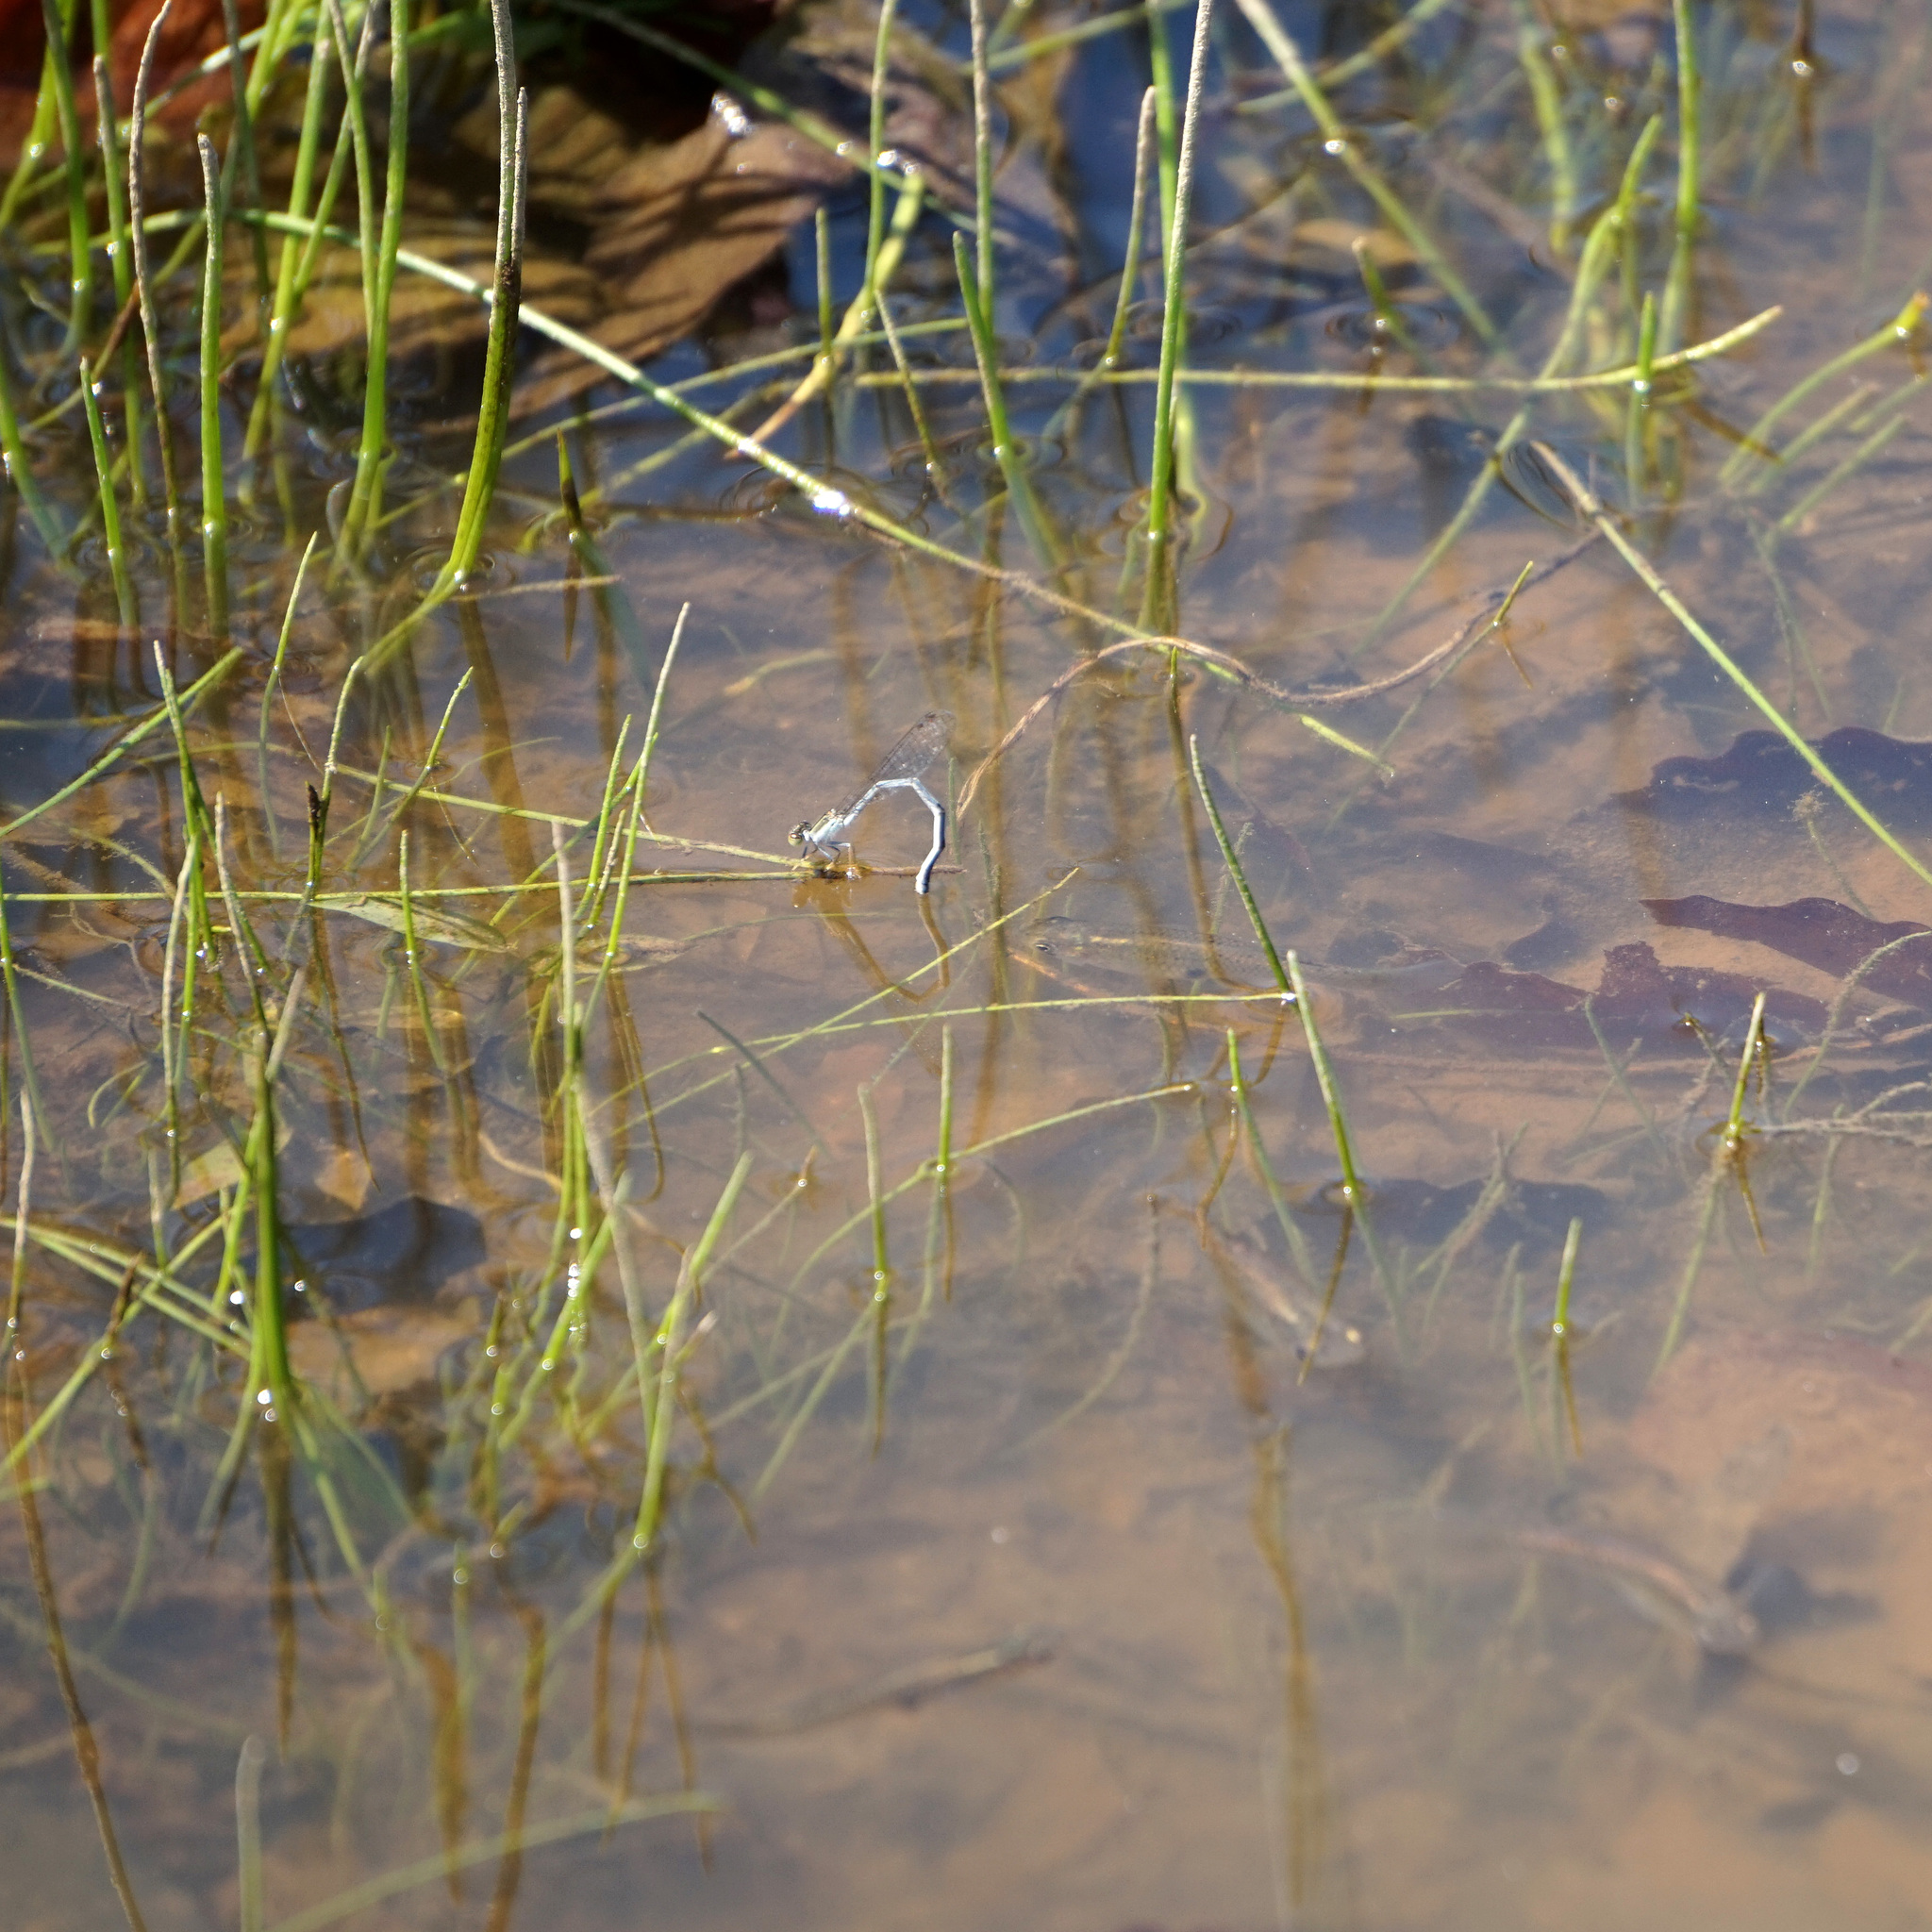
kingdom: Animalia
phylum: Arthropoda
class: Insecta
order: Odonata
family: Coenagrionidae
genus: Ischnura
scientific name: Ischnura verticalis
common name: Eastern forktail
